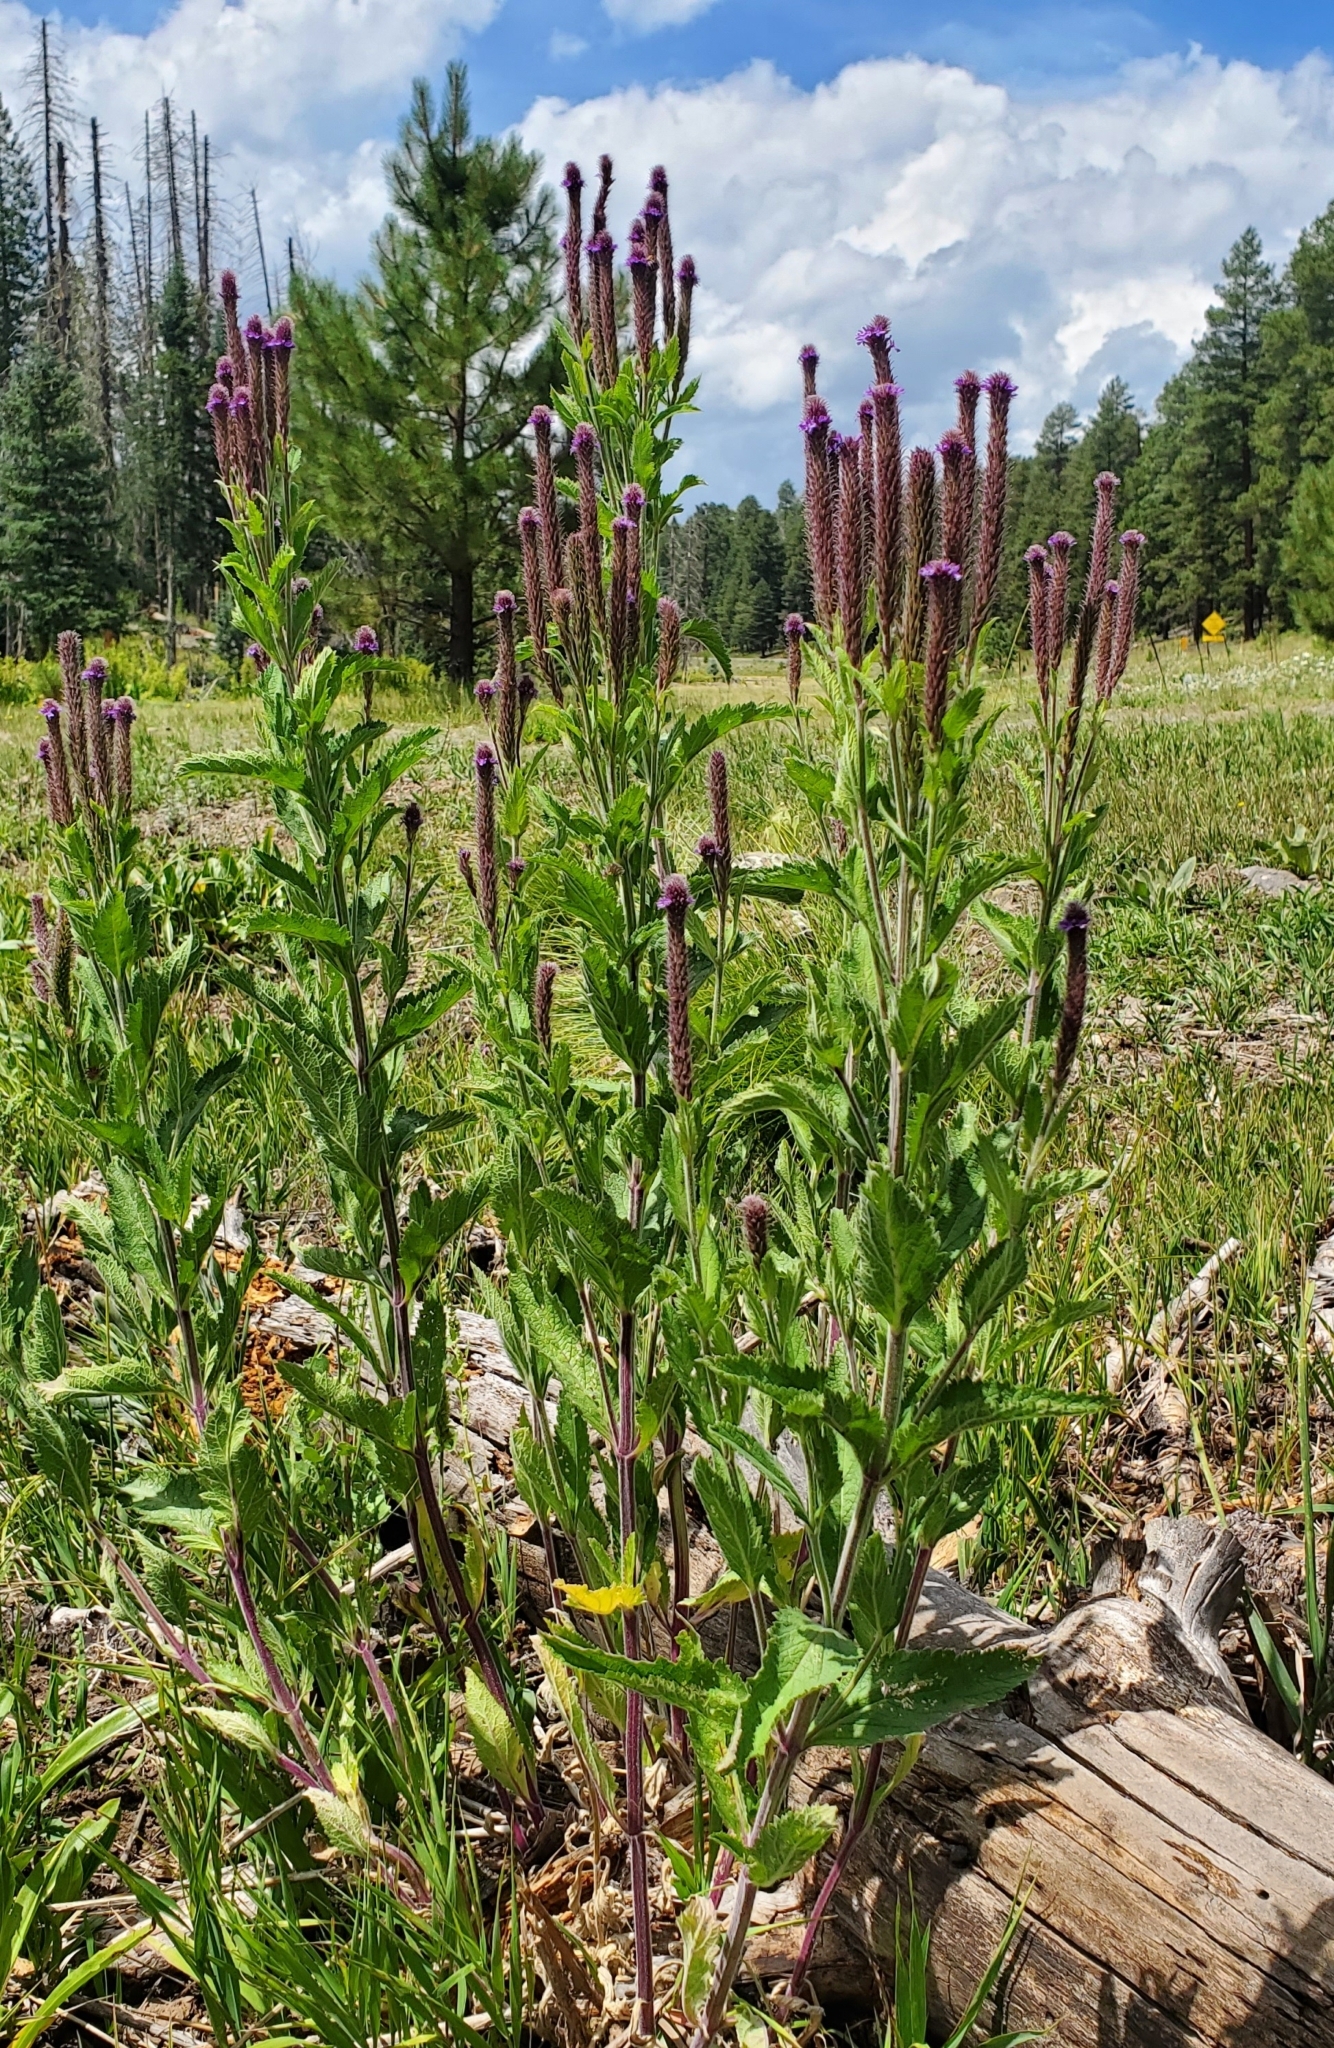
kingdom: Plantae
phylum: Tracheophyta
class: Magnoliopsida
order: Lamiales
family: Verbenaceae
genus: Verbena
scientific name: Verbena macdougalii
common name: New mexico vervain
